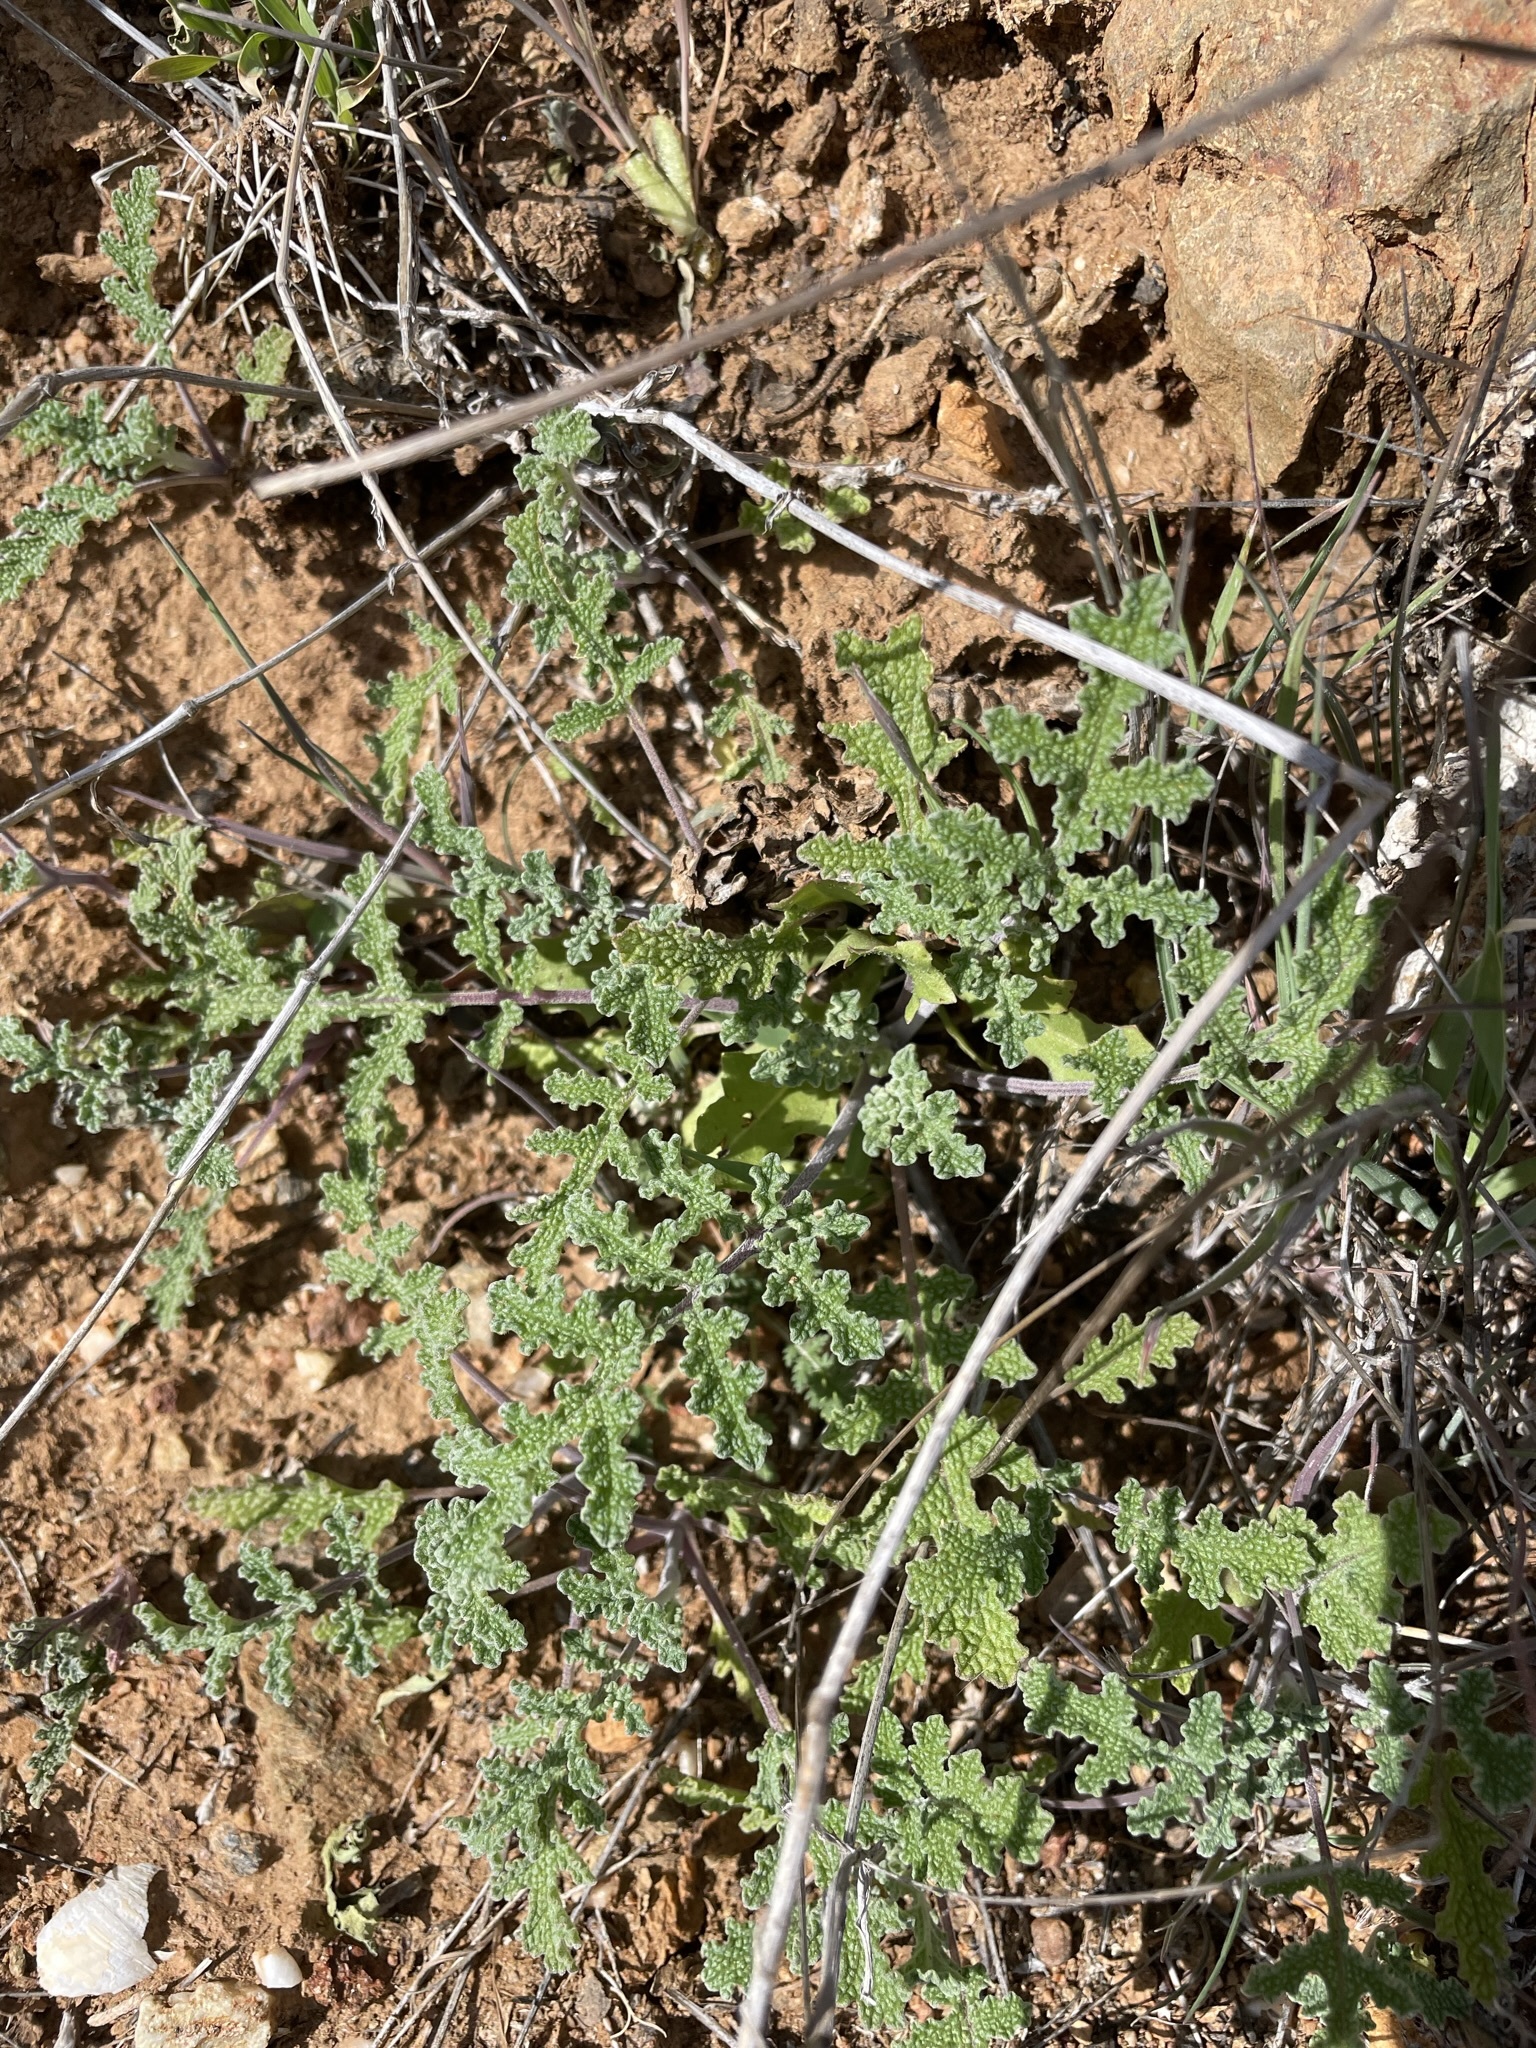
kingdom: Plantae
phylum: Tracheophyta
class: Magnoliopsida
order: Lamiales
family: Lamiaceae
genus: Salvia
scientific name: Salvia columbariae
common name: Chia
